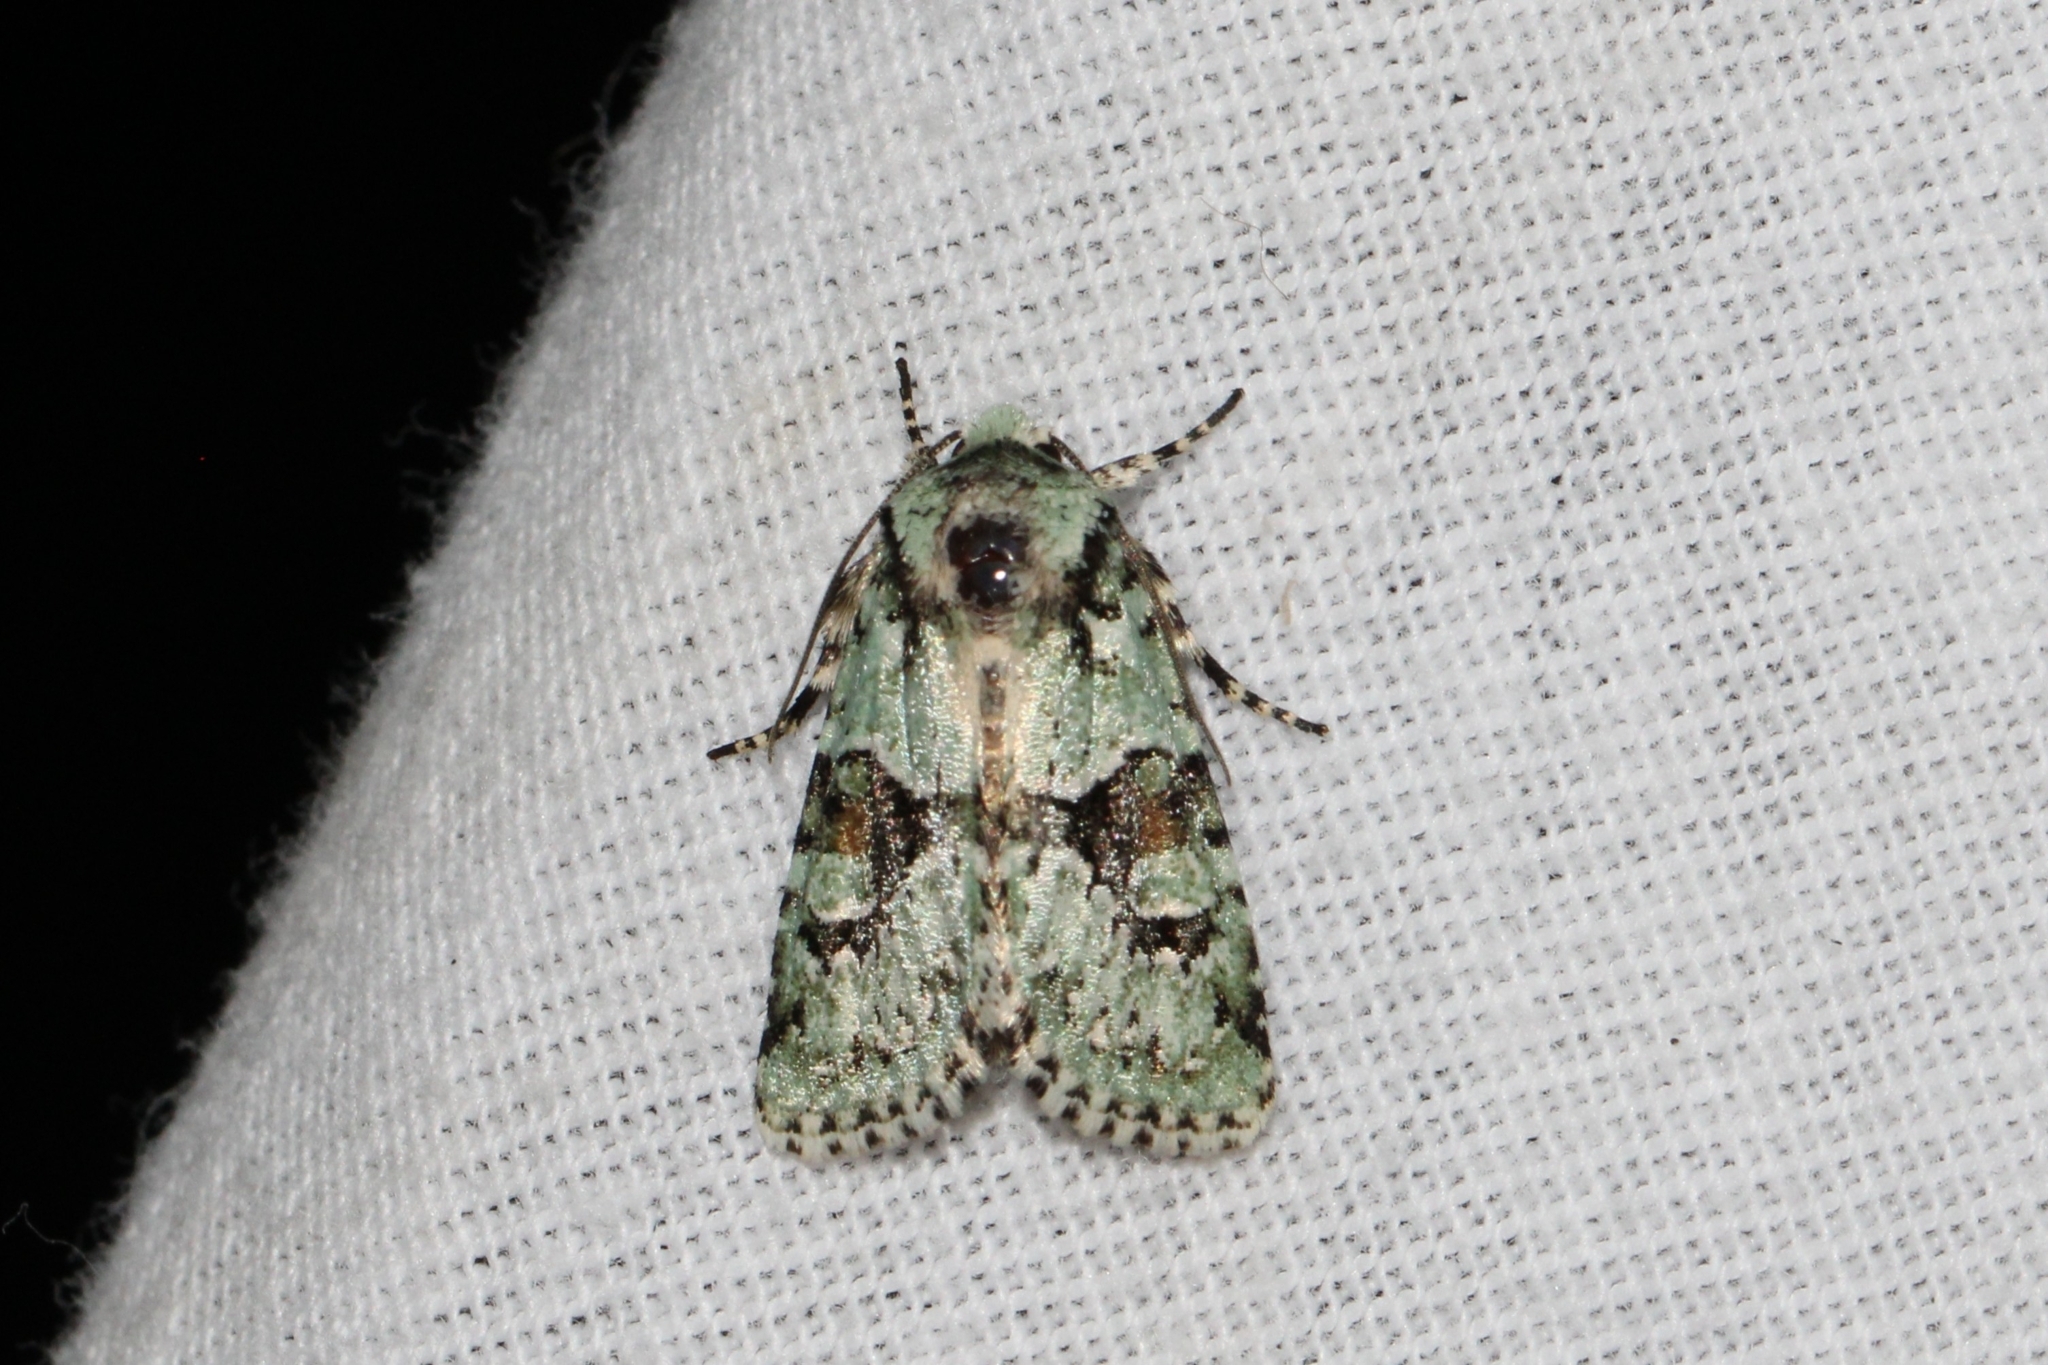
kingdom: Animalia
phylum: Arthropoda
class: Insecta
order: Lepidoptera
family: Noctuidae
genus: Lacinipolia
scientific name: Lacinipolia implicata
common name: Implicit arches
